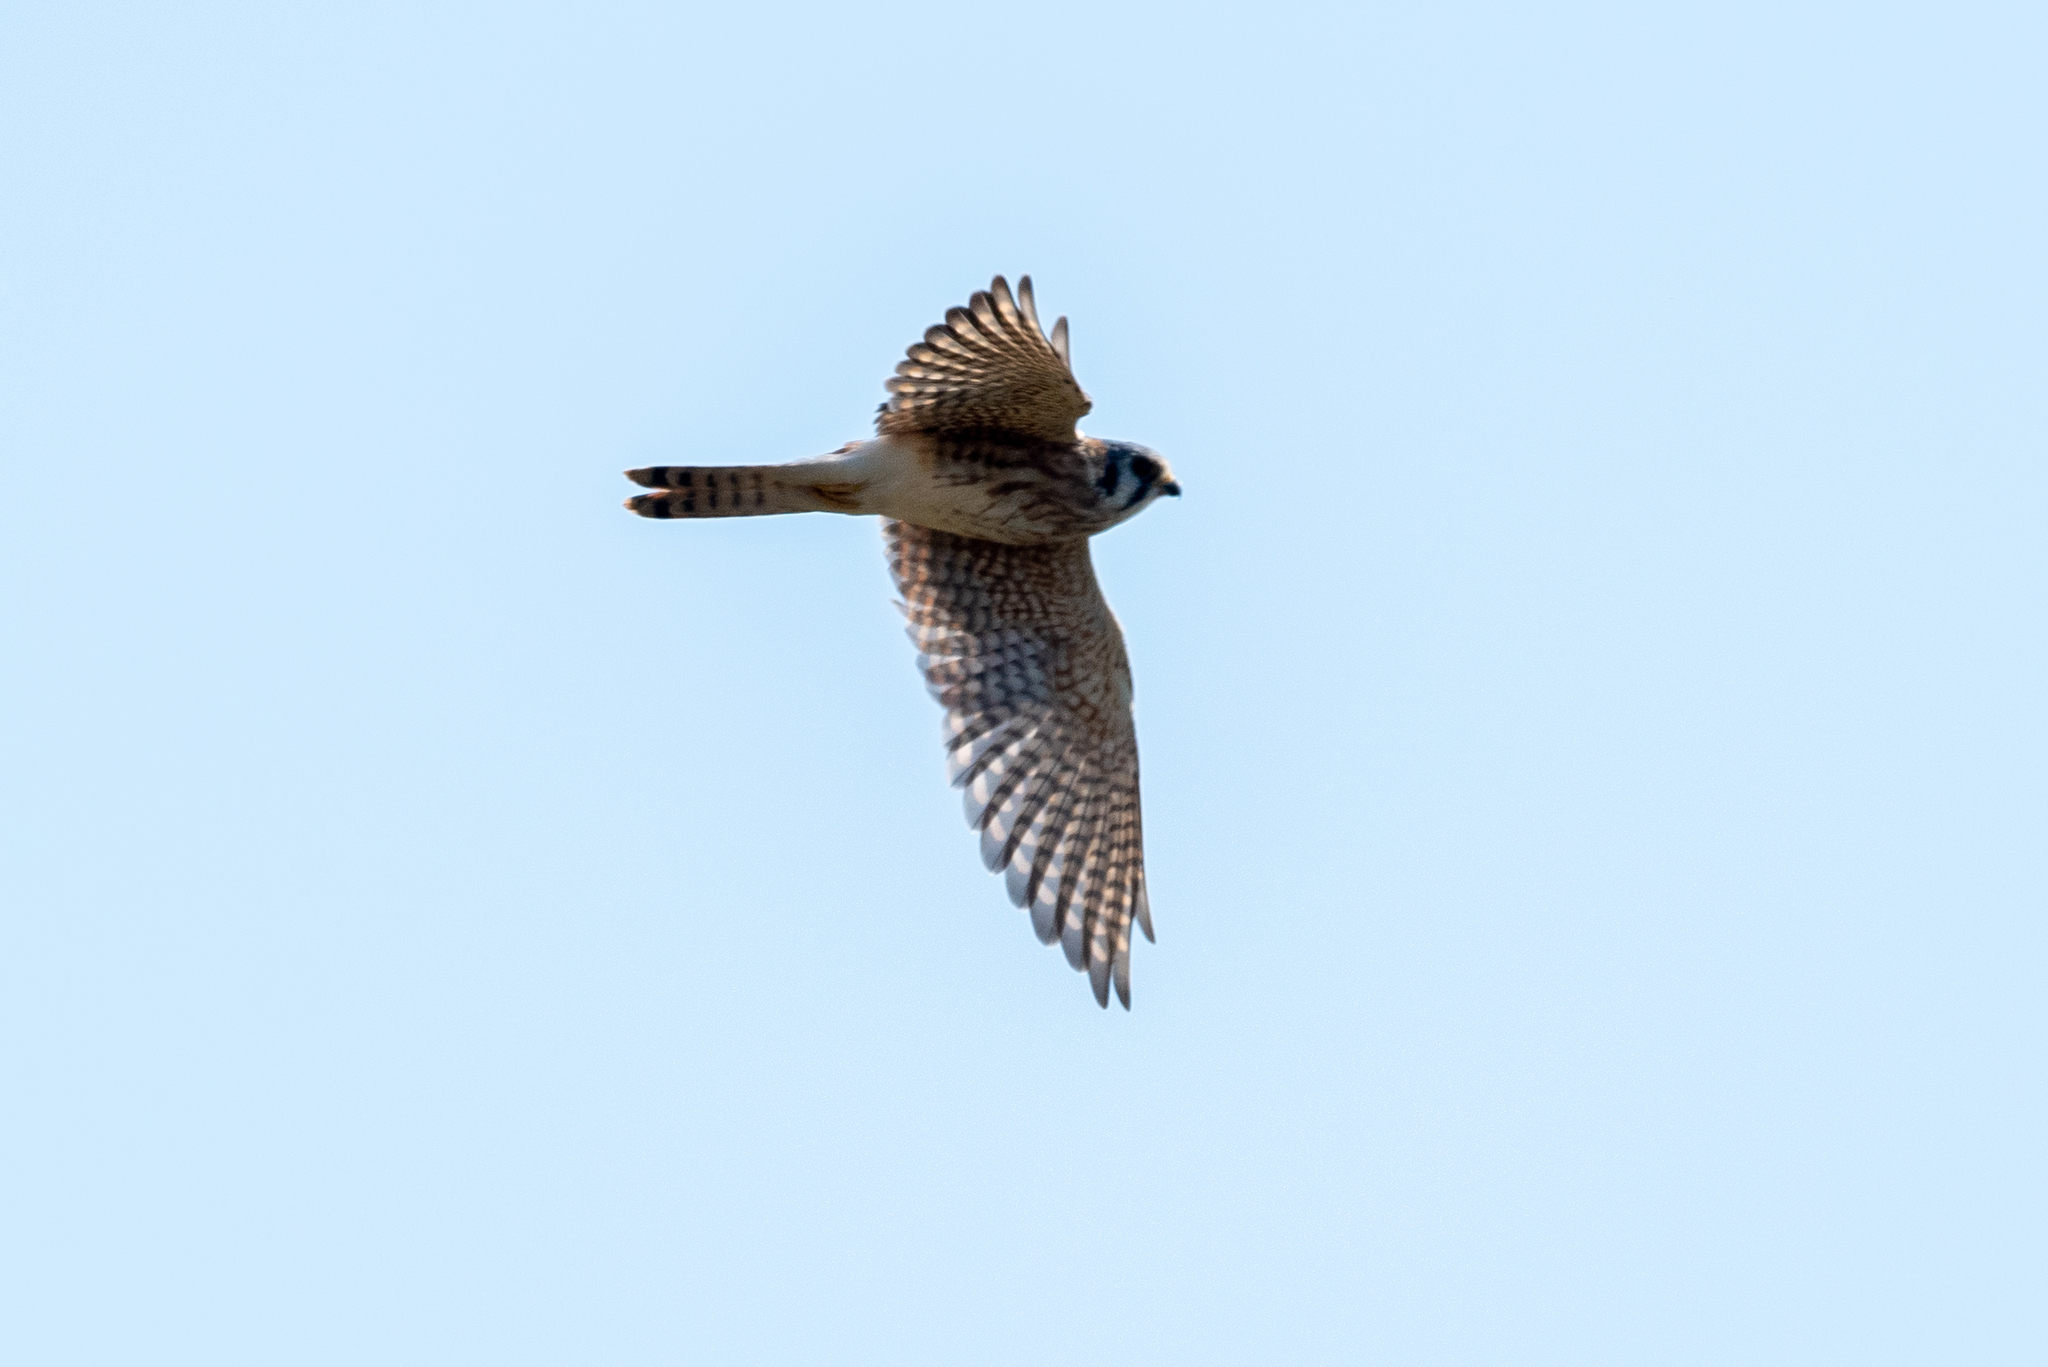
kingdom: Animalia
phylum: Chordata
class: Aves
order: Falconiformes
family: Falconidae
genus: Falco
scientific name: Falco sparverius
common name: American kestrel
